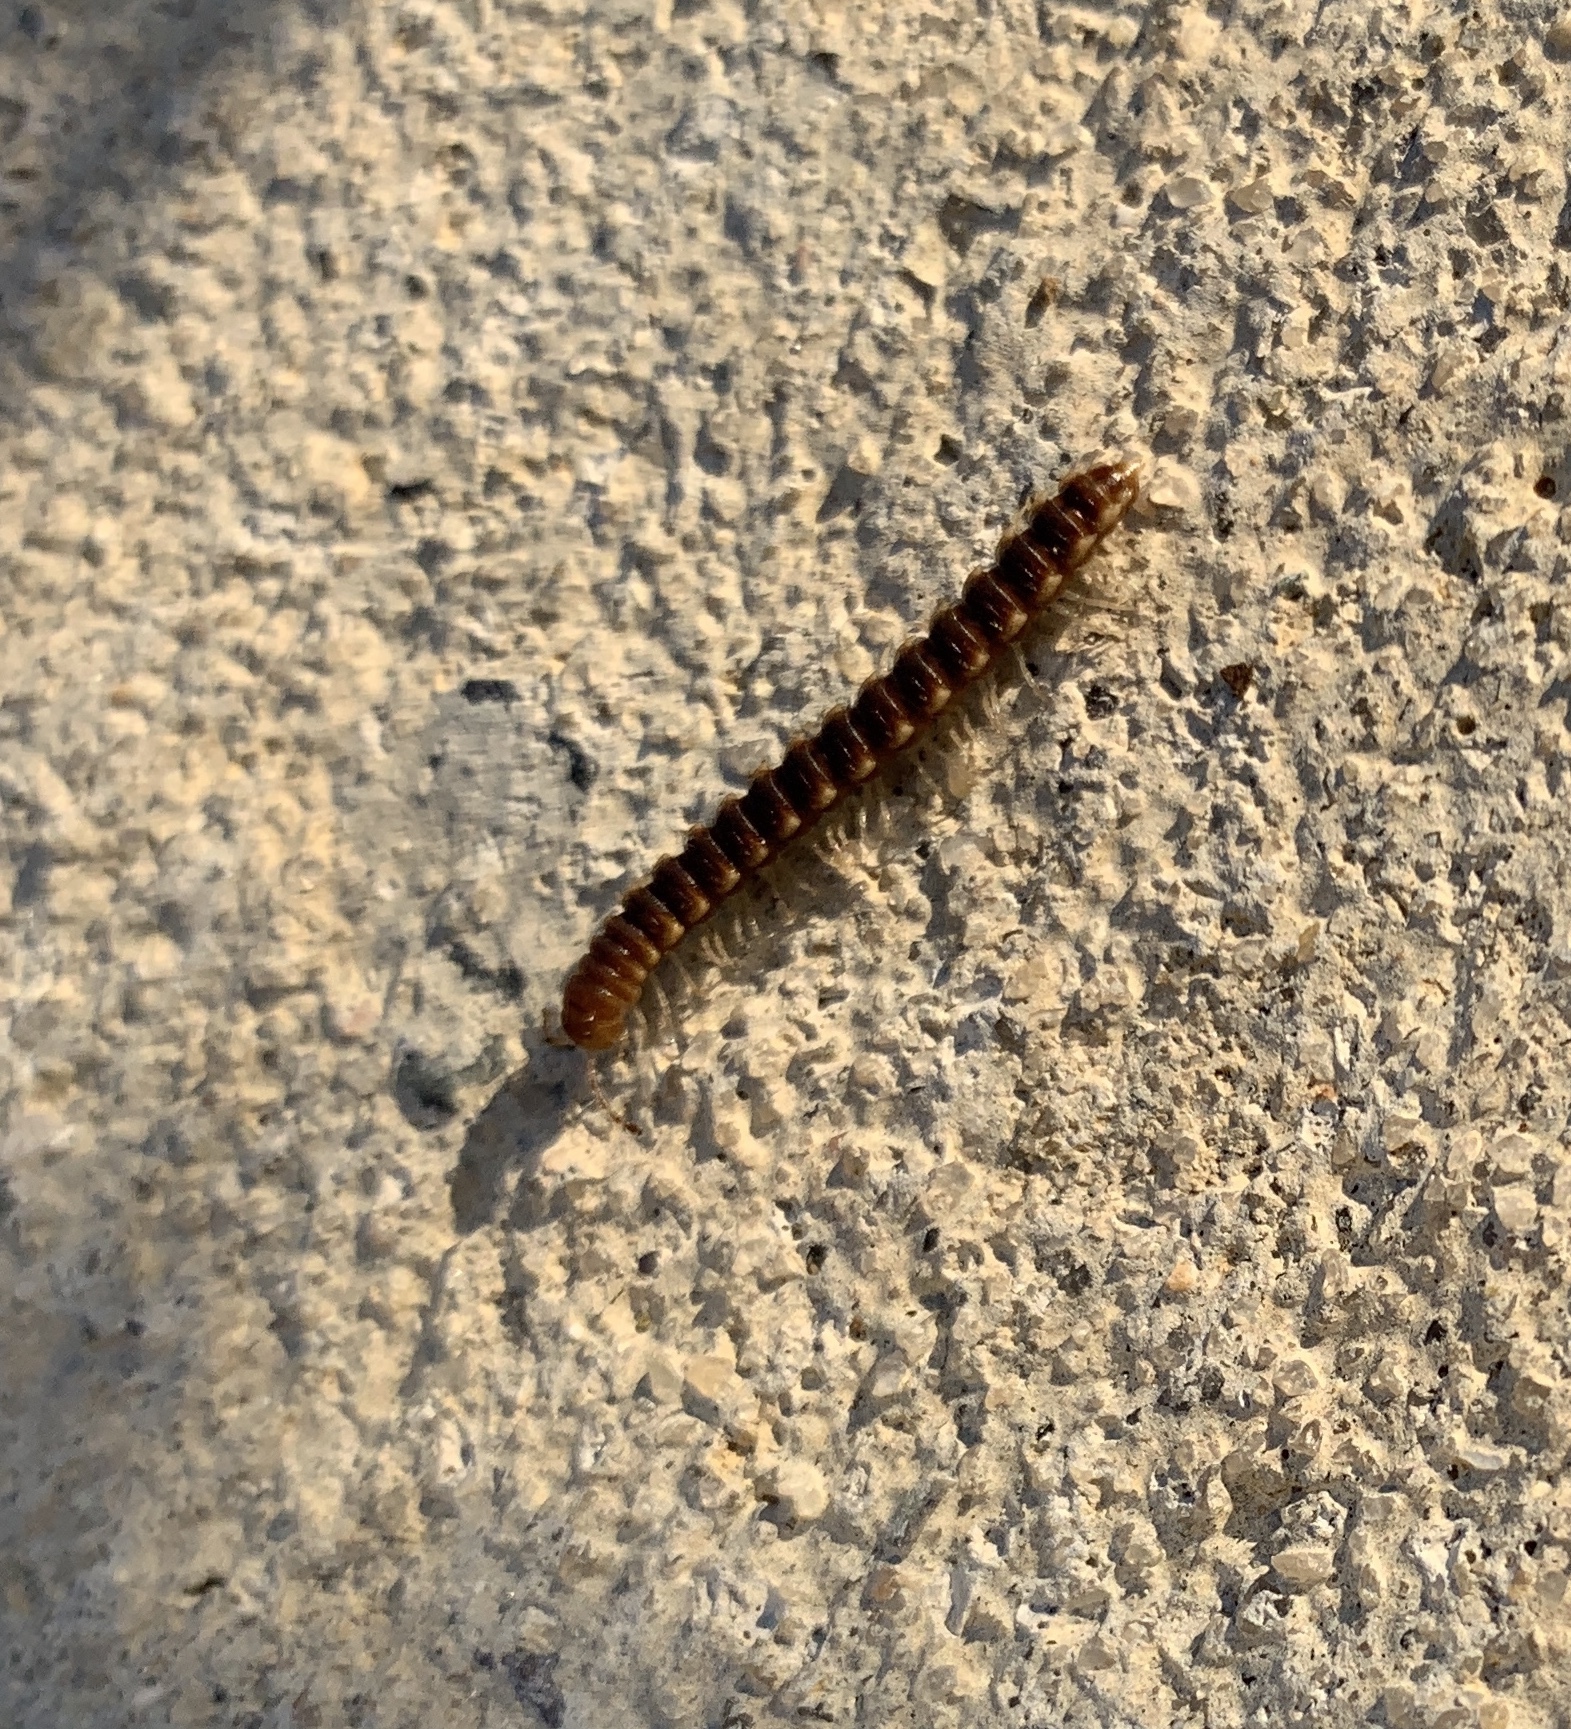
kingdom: Animalia
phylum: Arthropoda
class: Diplopoda
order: Polydesmida
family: Paradoxosomatidae
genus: Oxidus
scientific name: Oxidus gracilis
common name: Greenhouse millipede
